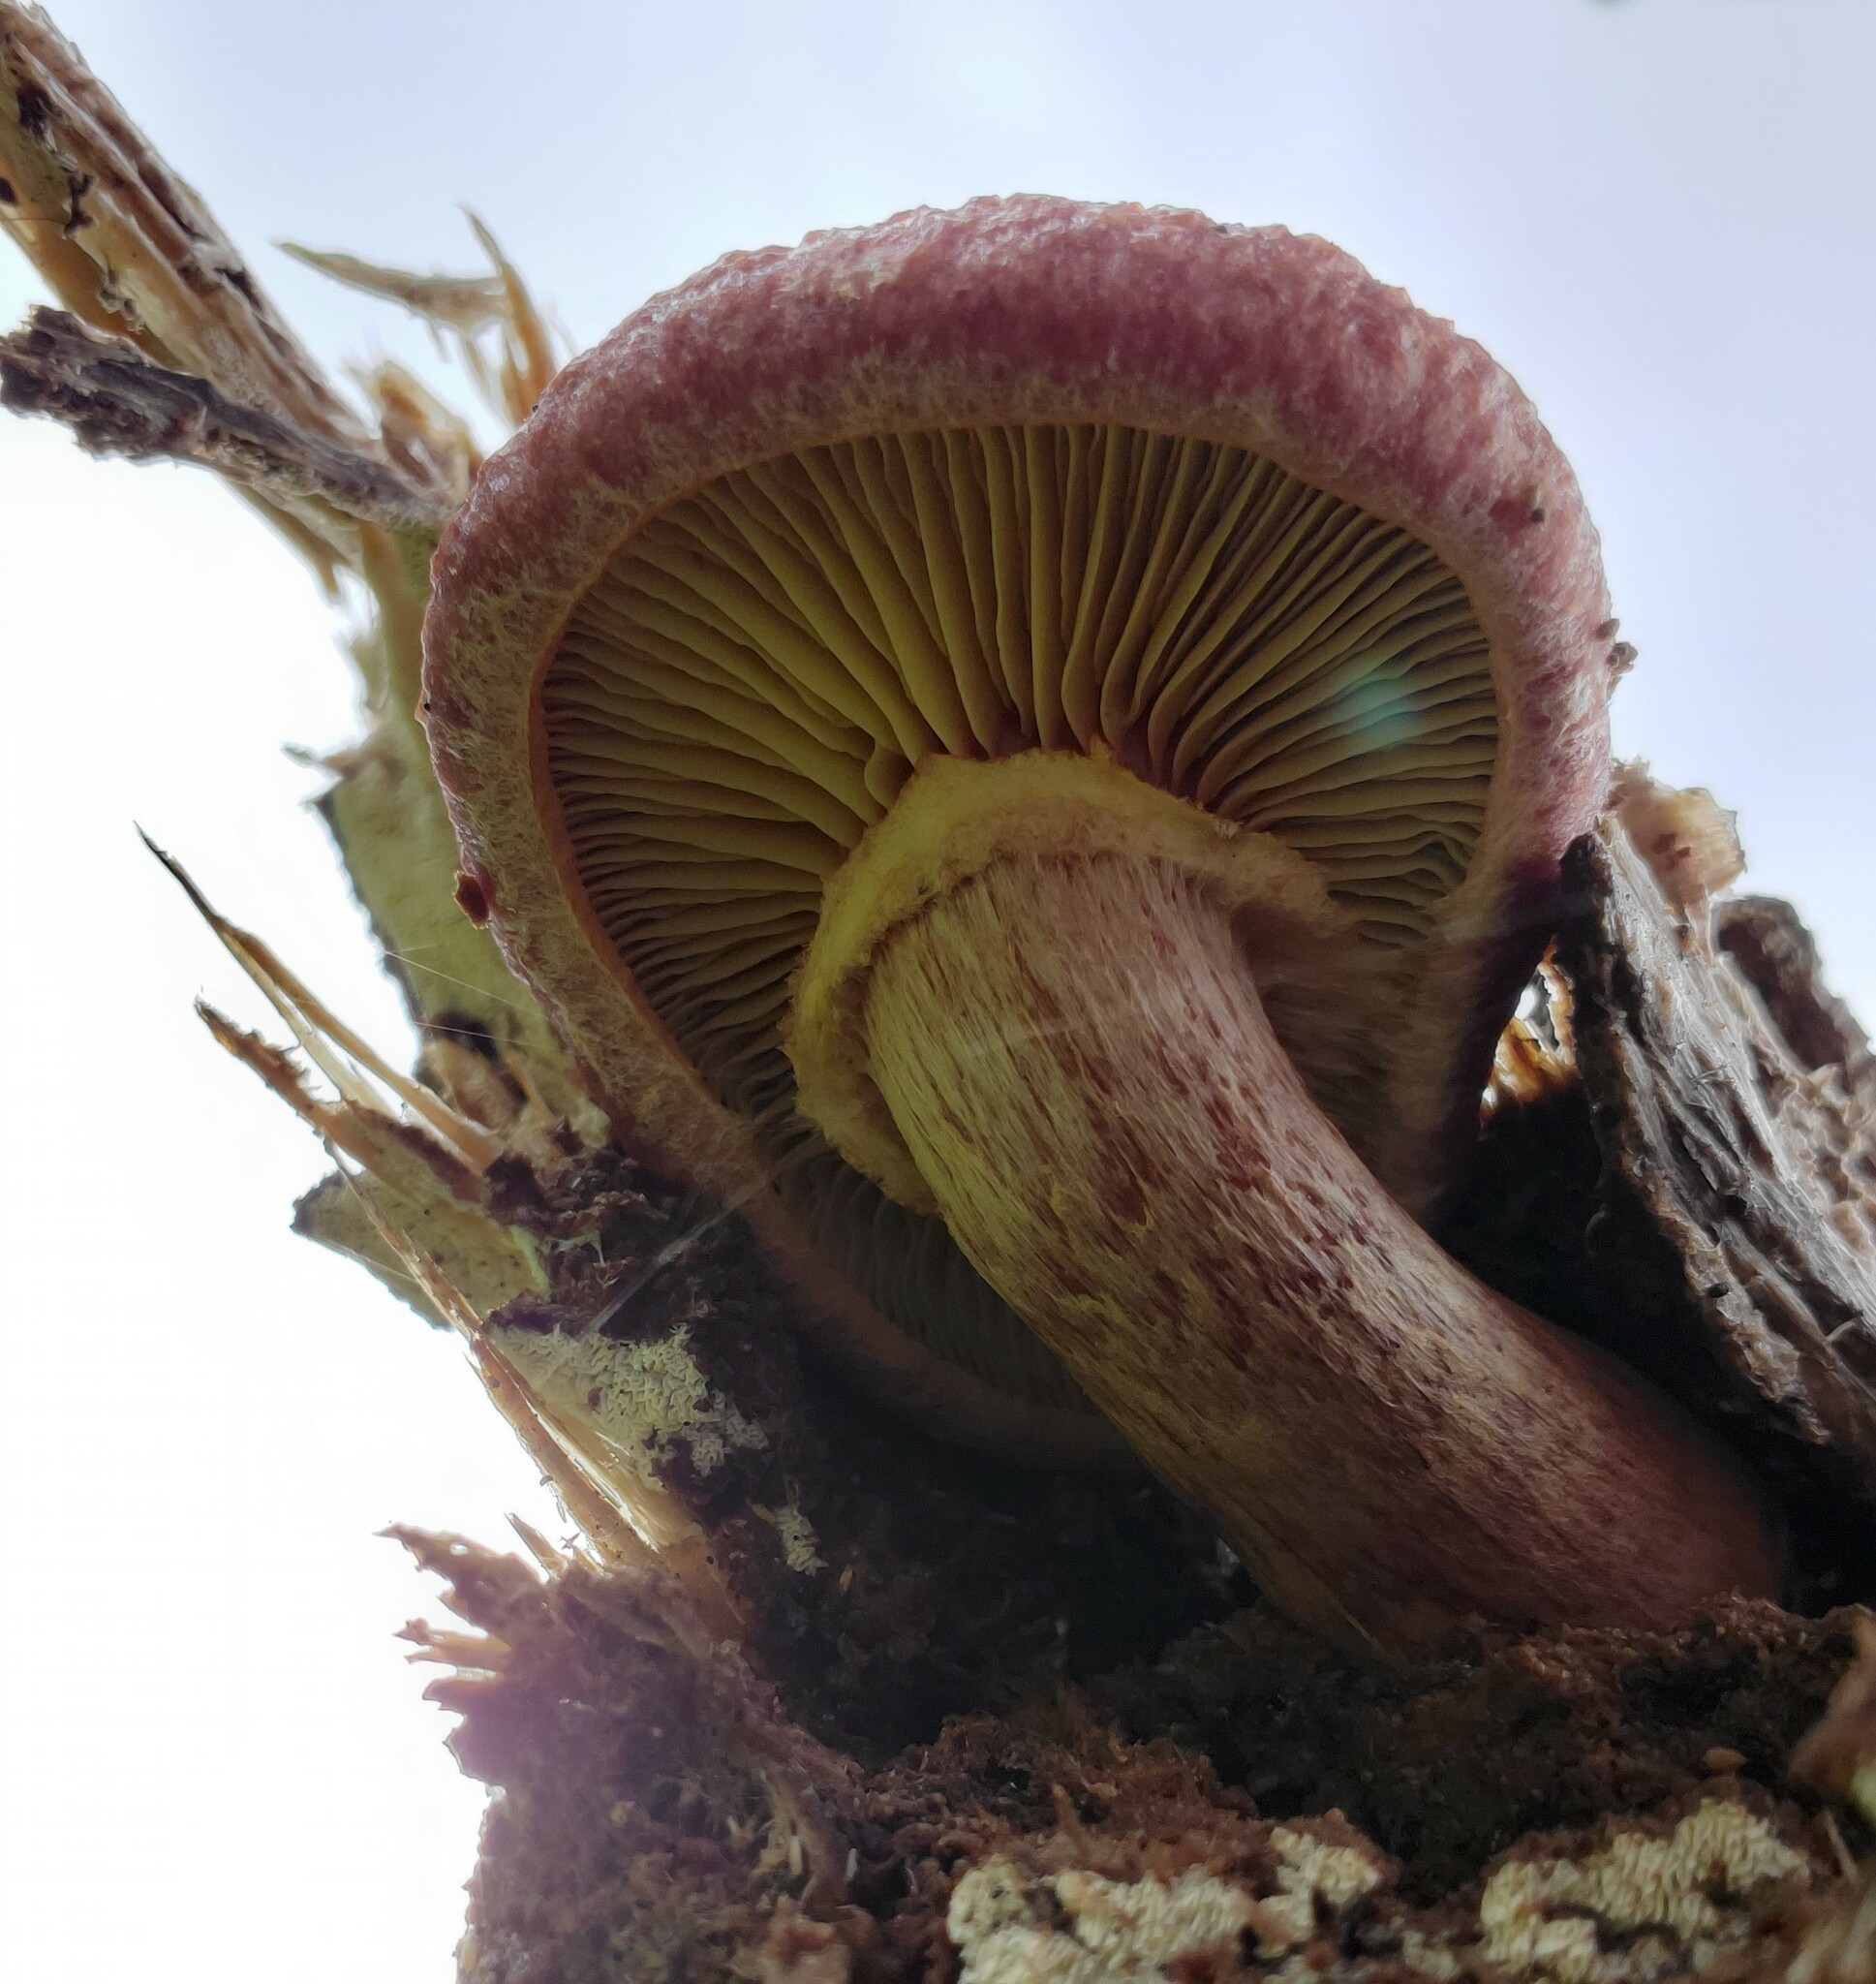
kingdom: Fungi
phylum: Basidiomycota
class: Agaricomycetes
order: Agaricales
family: Hymenogastraceae
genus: Gymnopilus
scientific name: Gymnopilus luteofolius
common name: Yellow-gilled gymnopilus
